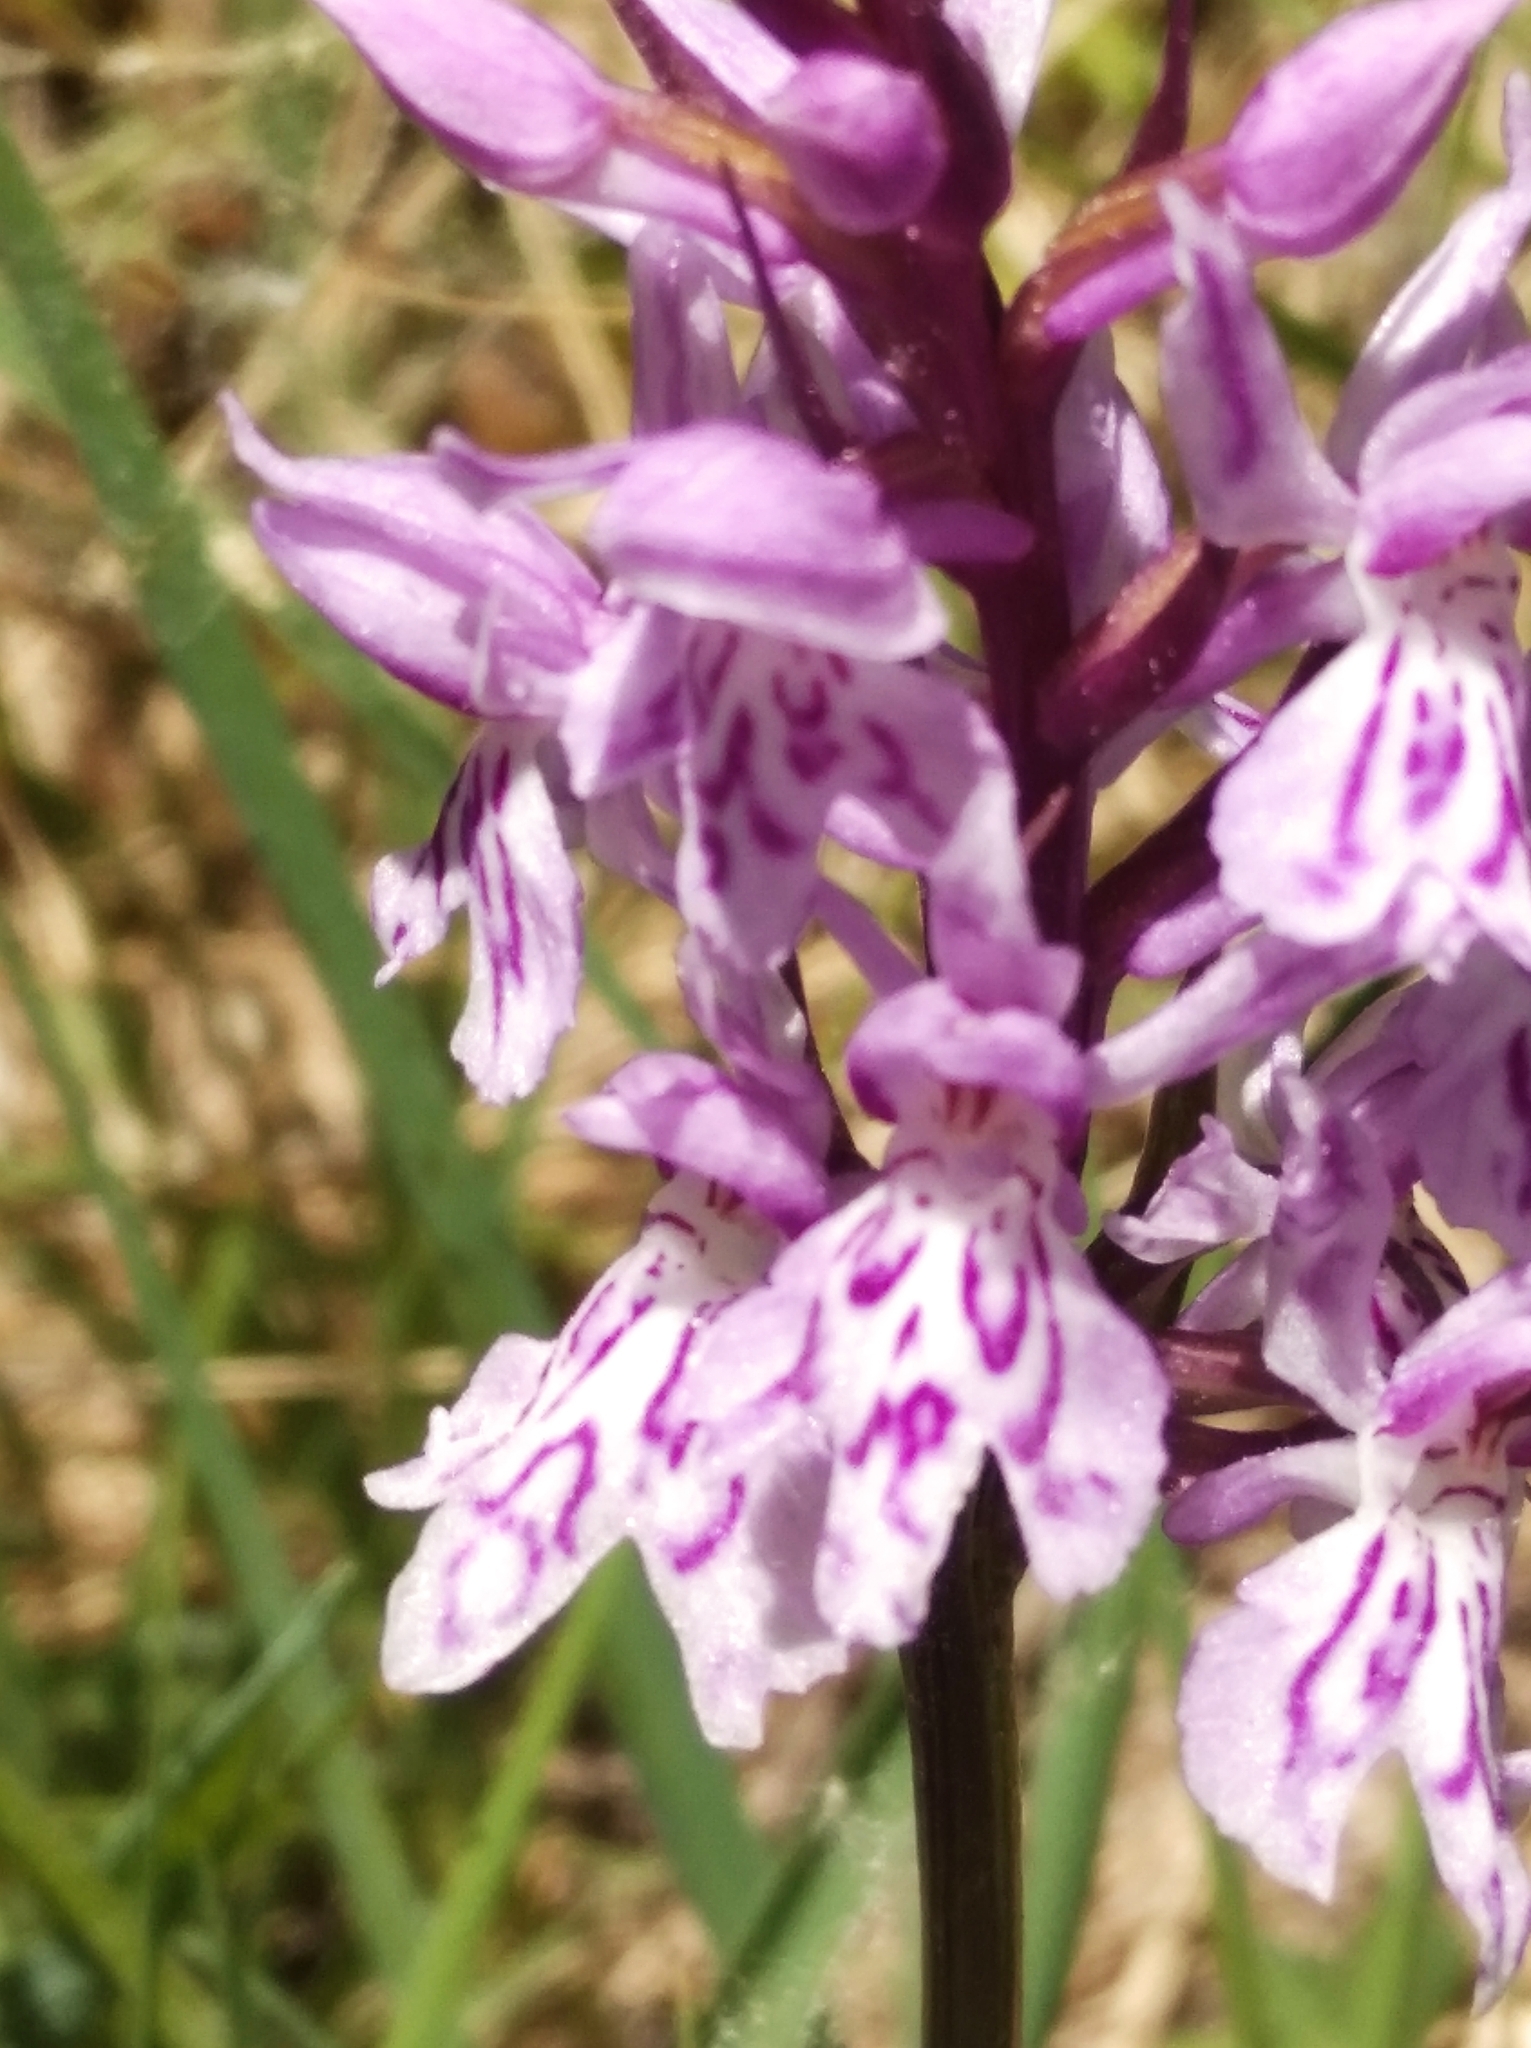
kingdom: Plantae
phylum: Tracheophyta
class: Liliopsida
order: Asparagales
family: Orchidaceae
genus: Dactylorhiza
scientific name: Dactylorhiza maculata
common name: Heath spotted-orchid
